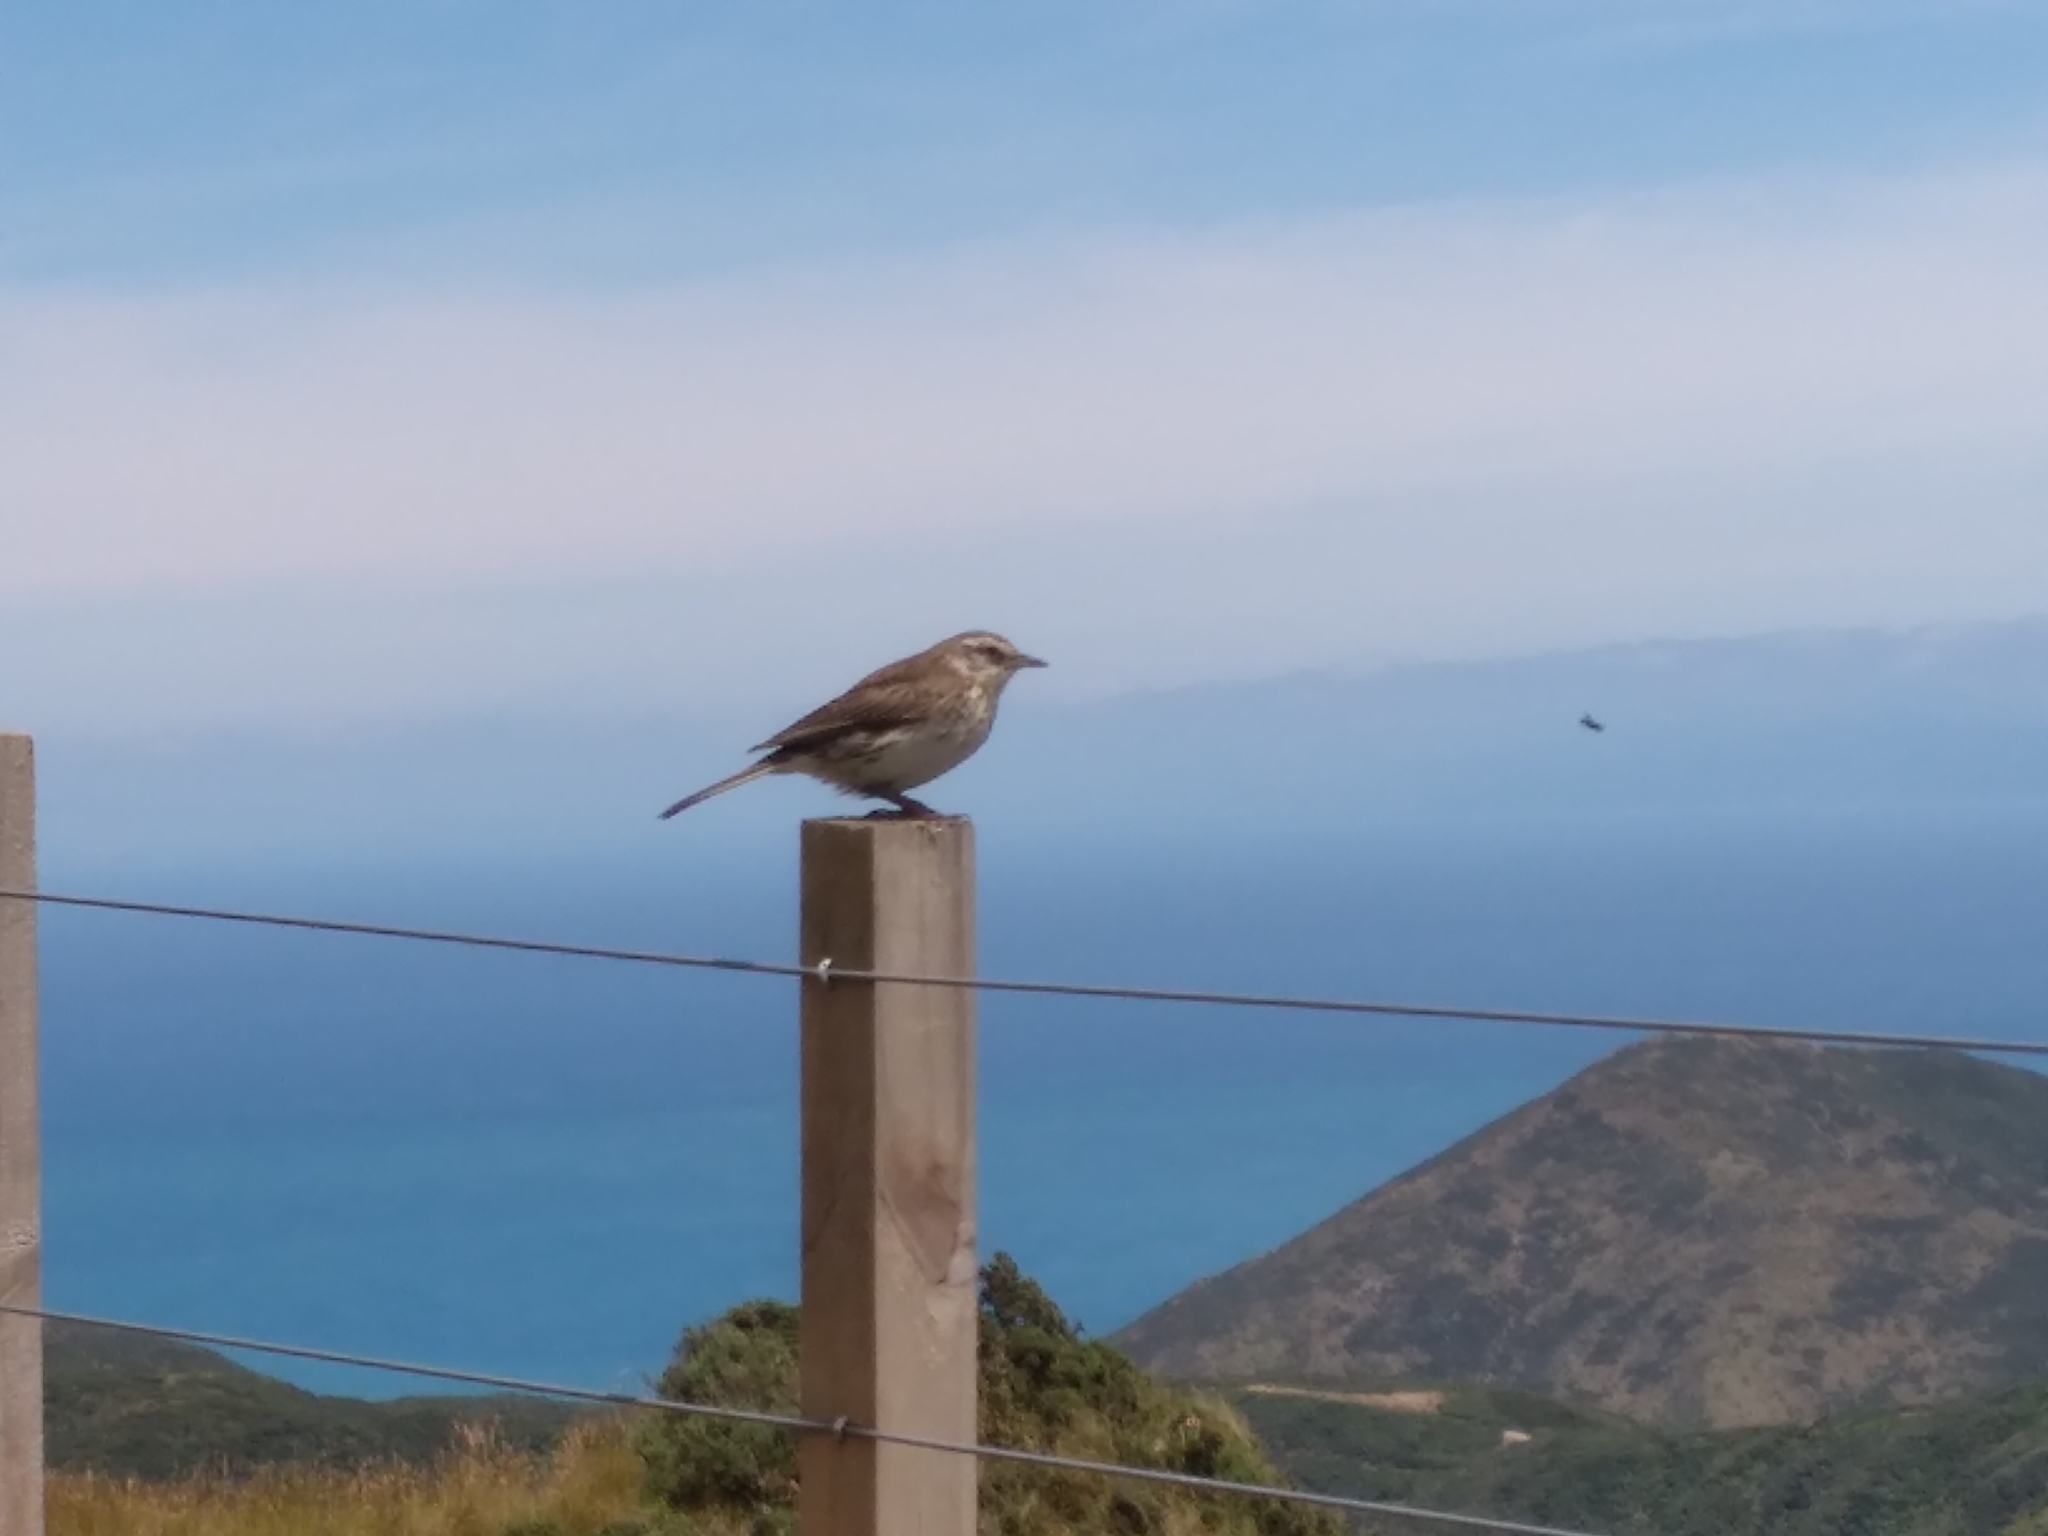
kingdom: Animalia
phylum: Chordata
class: Aves
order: Passeriformes
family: Motacillidae
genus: Anthus
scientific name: Anthus novaeseelandiae
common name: New zealand pipit
